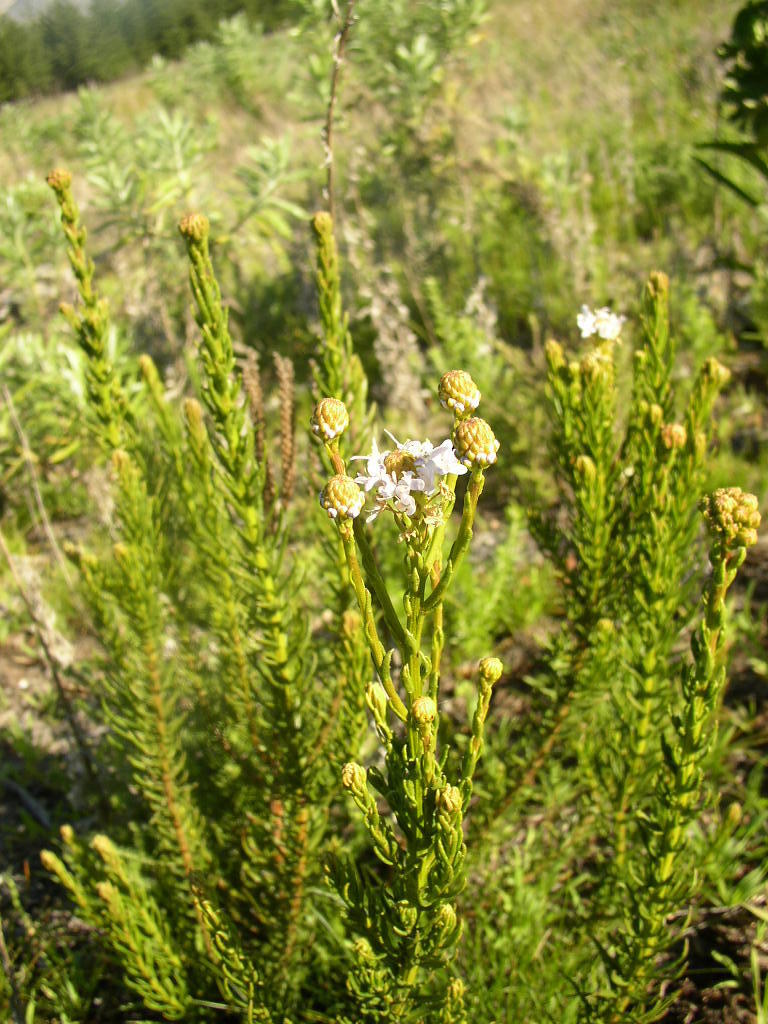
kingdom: Plantae
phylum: Tracheophyta
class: Magnoliopsida
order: Lamiales
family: Scrophulariaceae
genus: Pseudoselago
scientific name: Pseudoselago spuria
